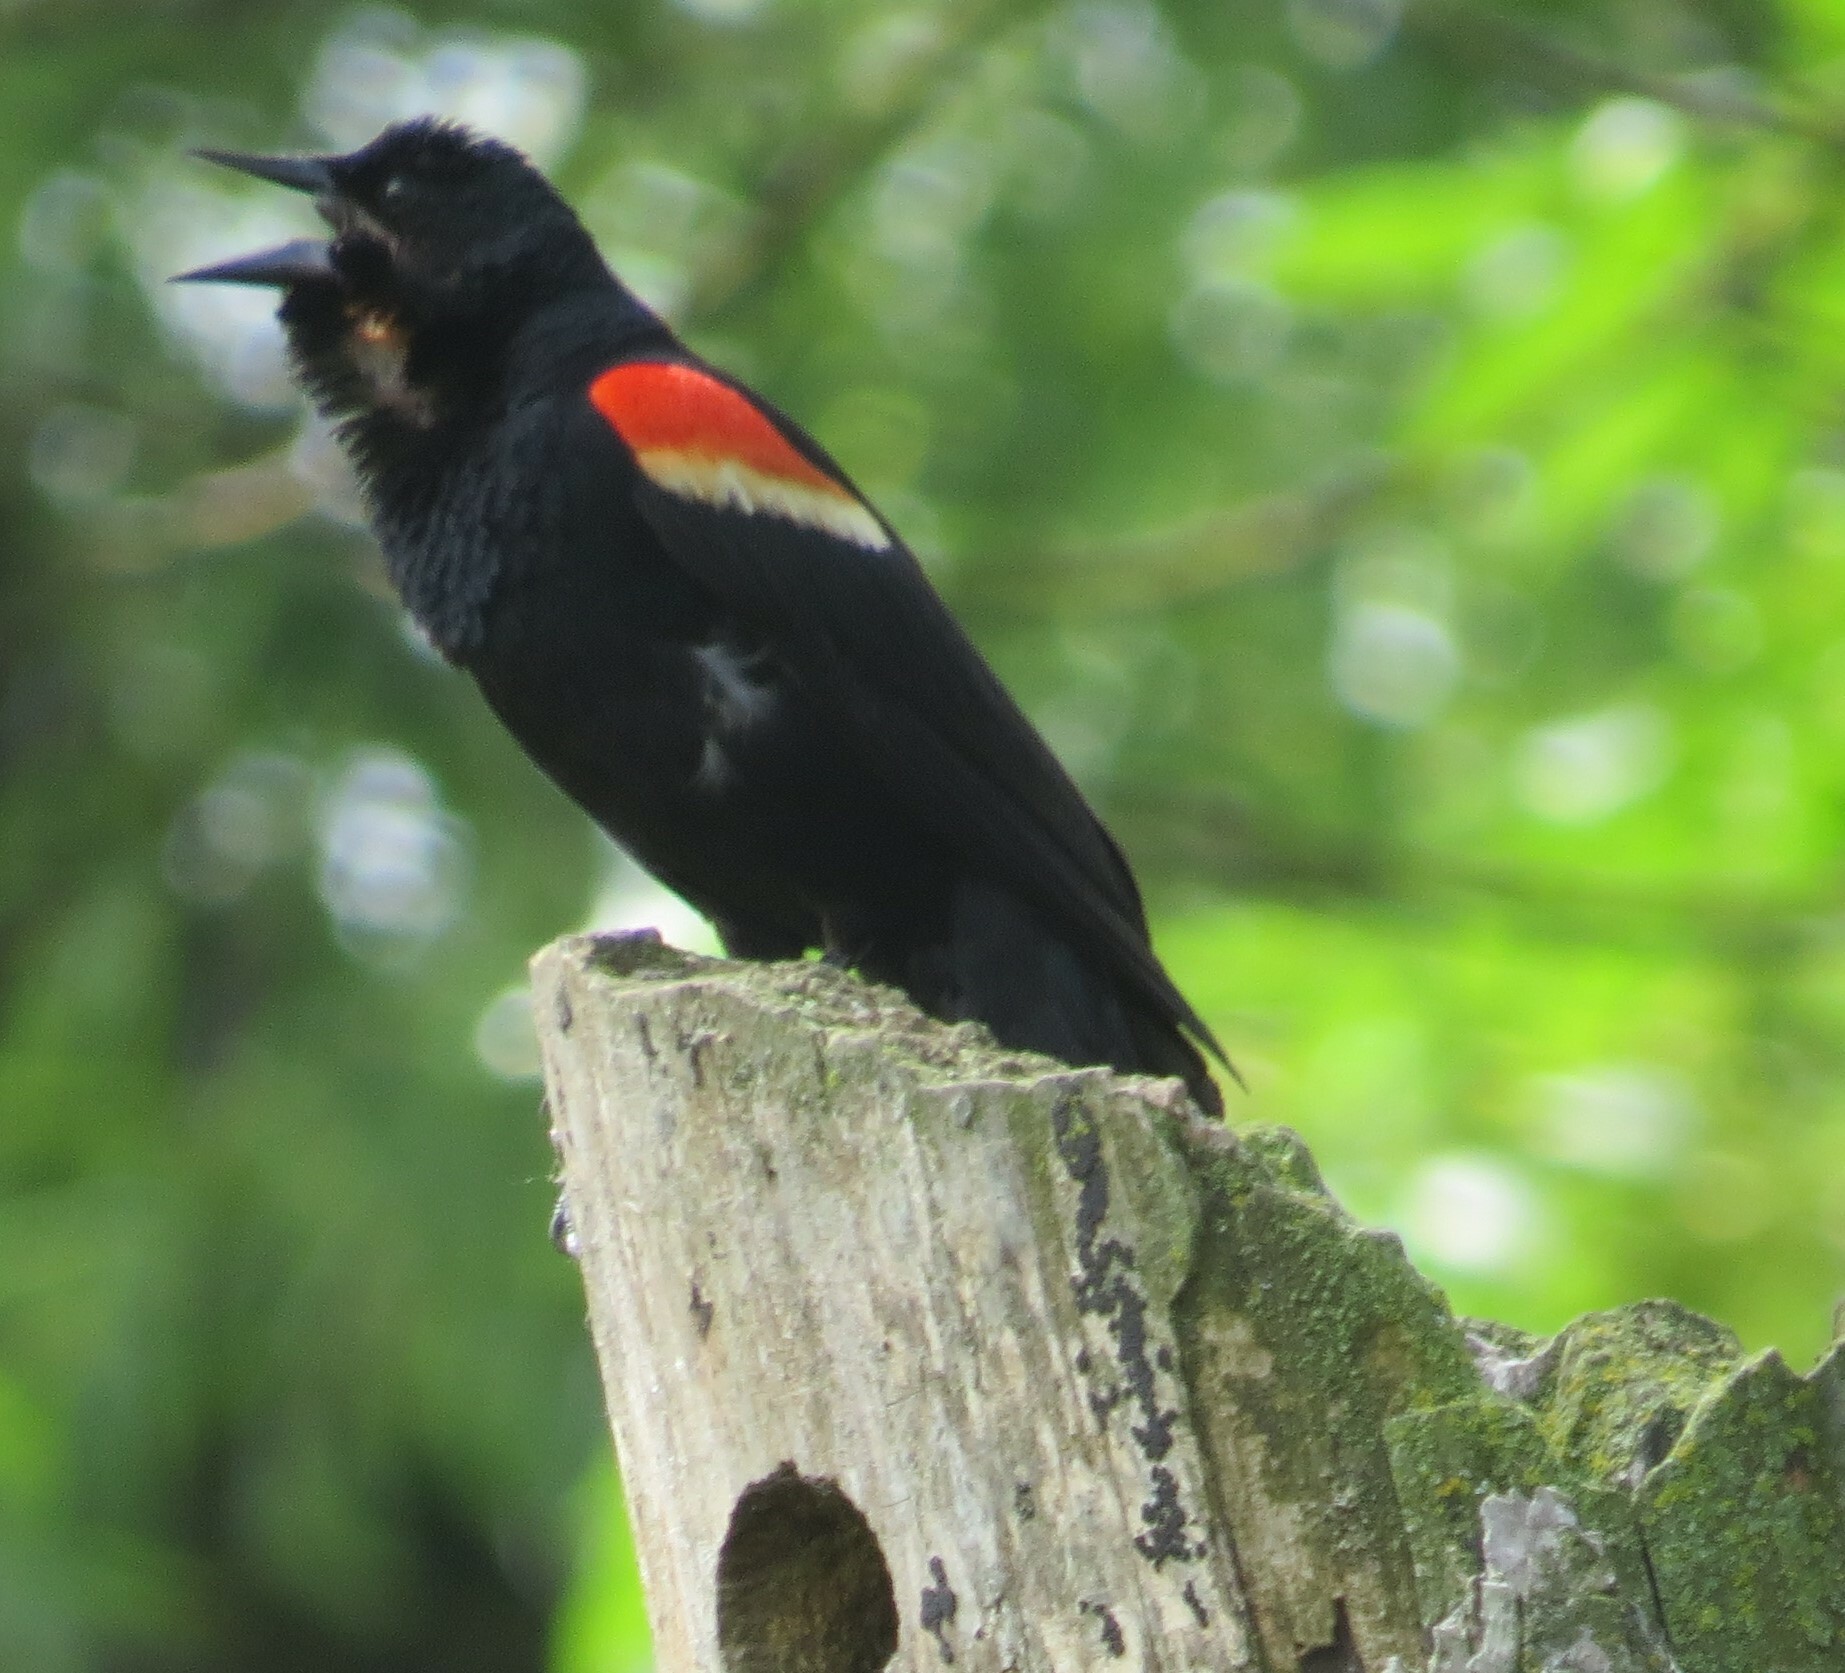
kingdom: Animalia
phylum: Chordata
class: Aves
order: Passeriformes
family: Icteridae
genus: Agelaius
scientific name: Agelaius phoeniceus
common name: Red-winged blackbird
